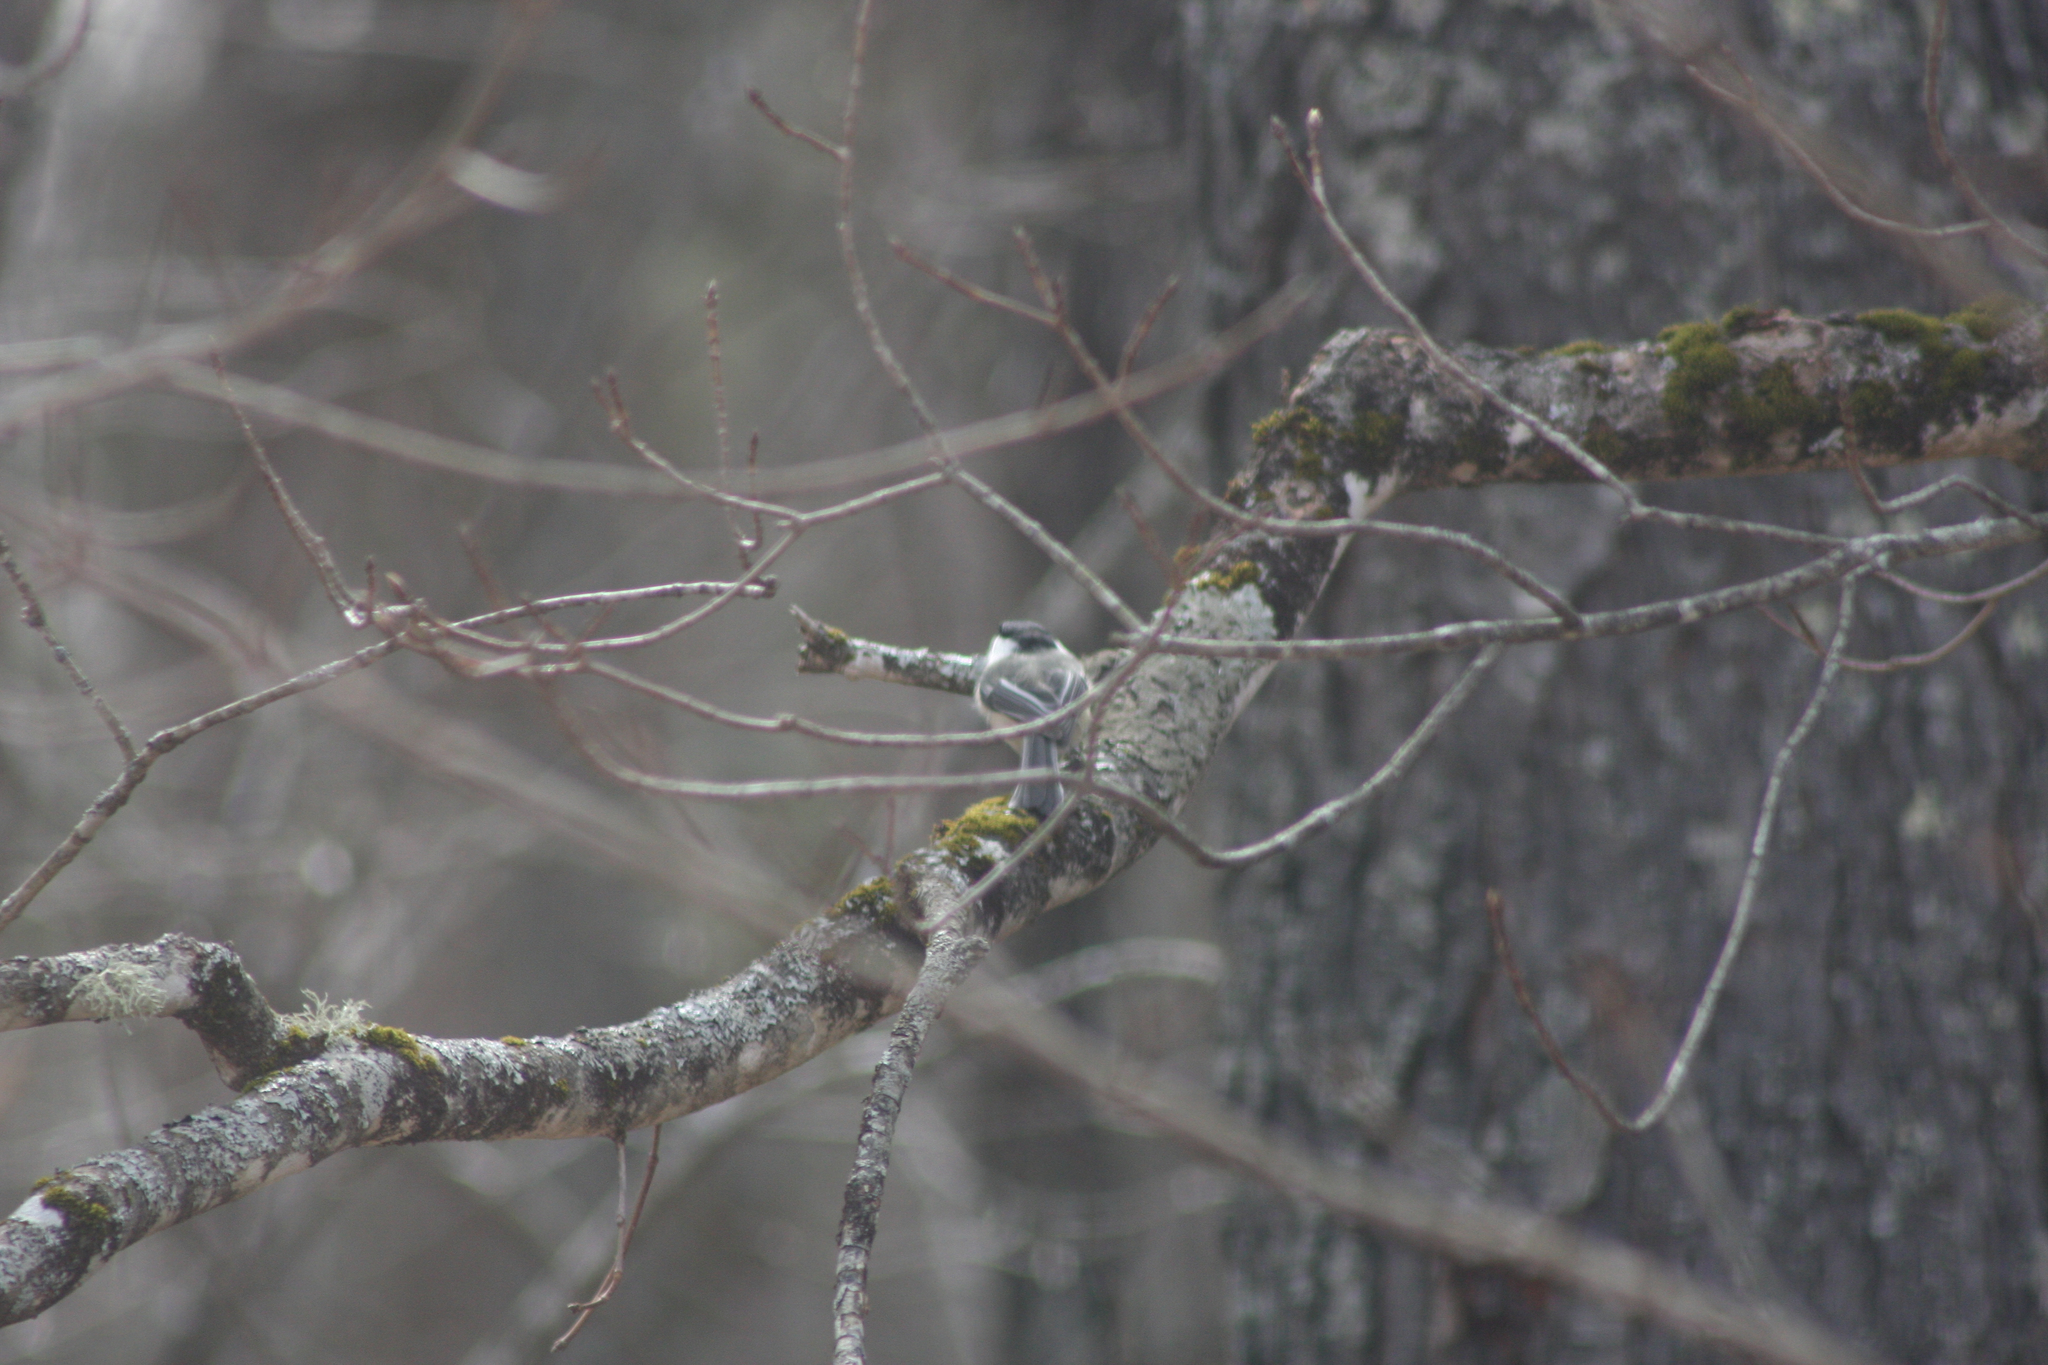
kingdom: Animalia
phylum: Chordata
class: Aves
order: Passeriformes
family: Paridae
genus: Poecile
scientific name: Poecile atricapillus
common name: Black-capped chickadee
